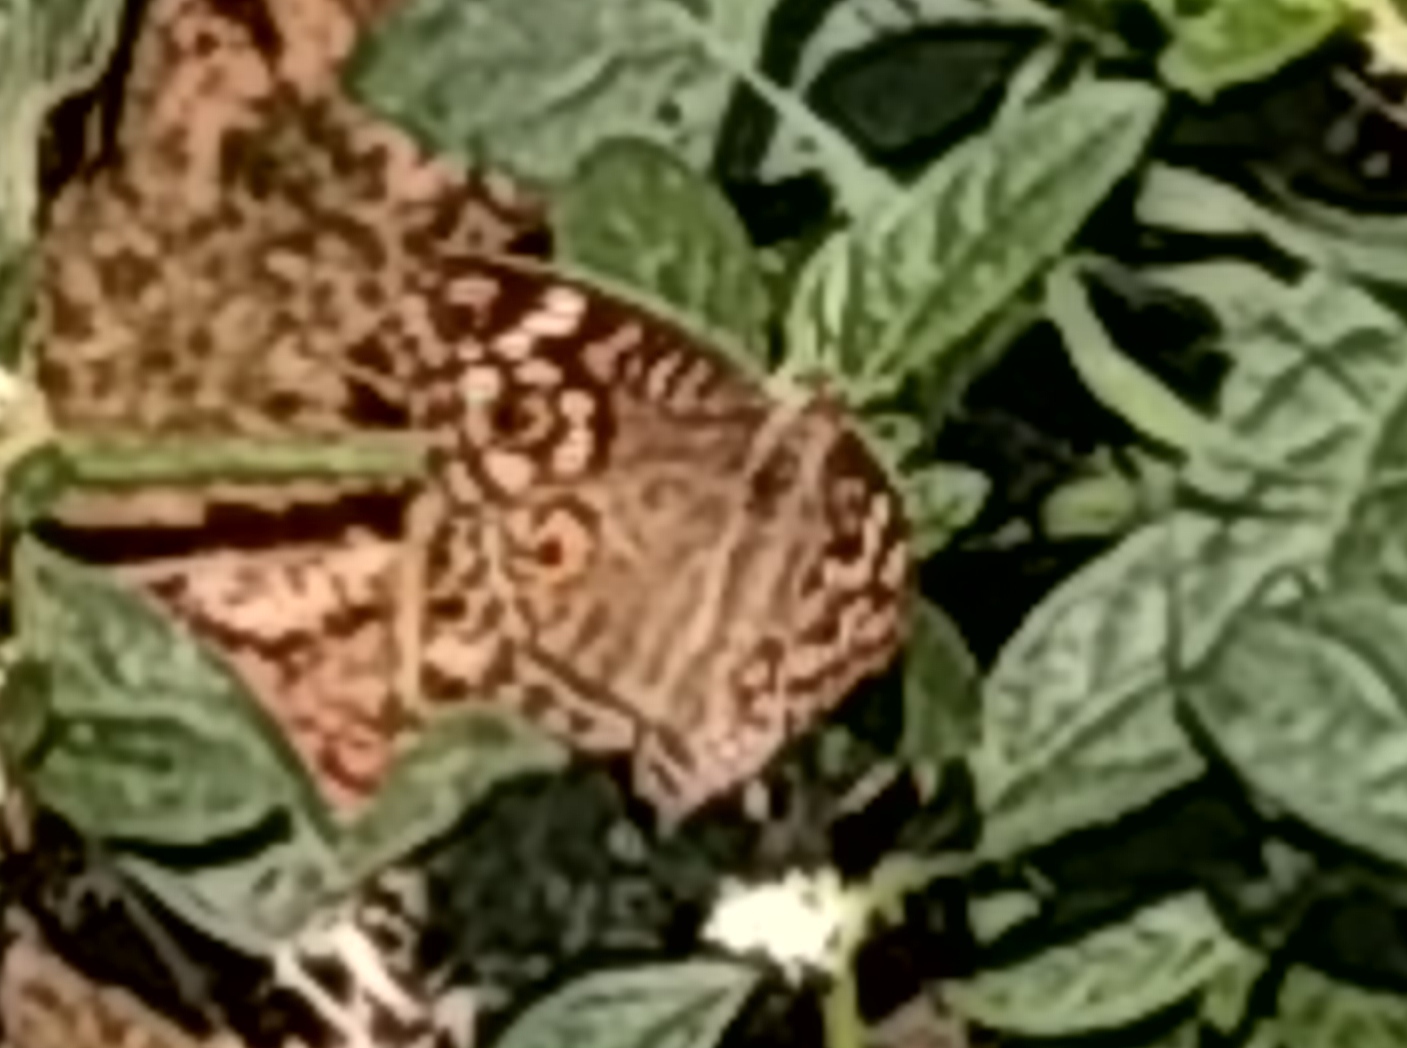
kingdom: Animalia
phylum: Arthropoda
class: Insecta
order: Lepidoptera
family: Nymphalidae
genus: Junonia
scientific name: Junonia lemonias
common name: Lemon pansy
